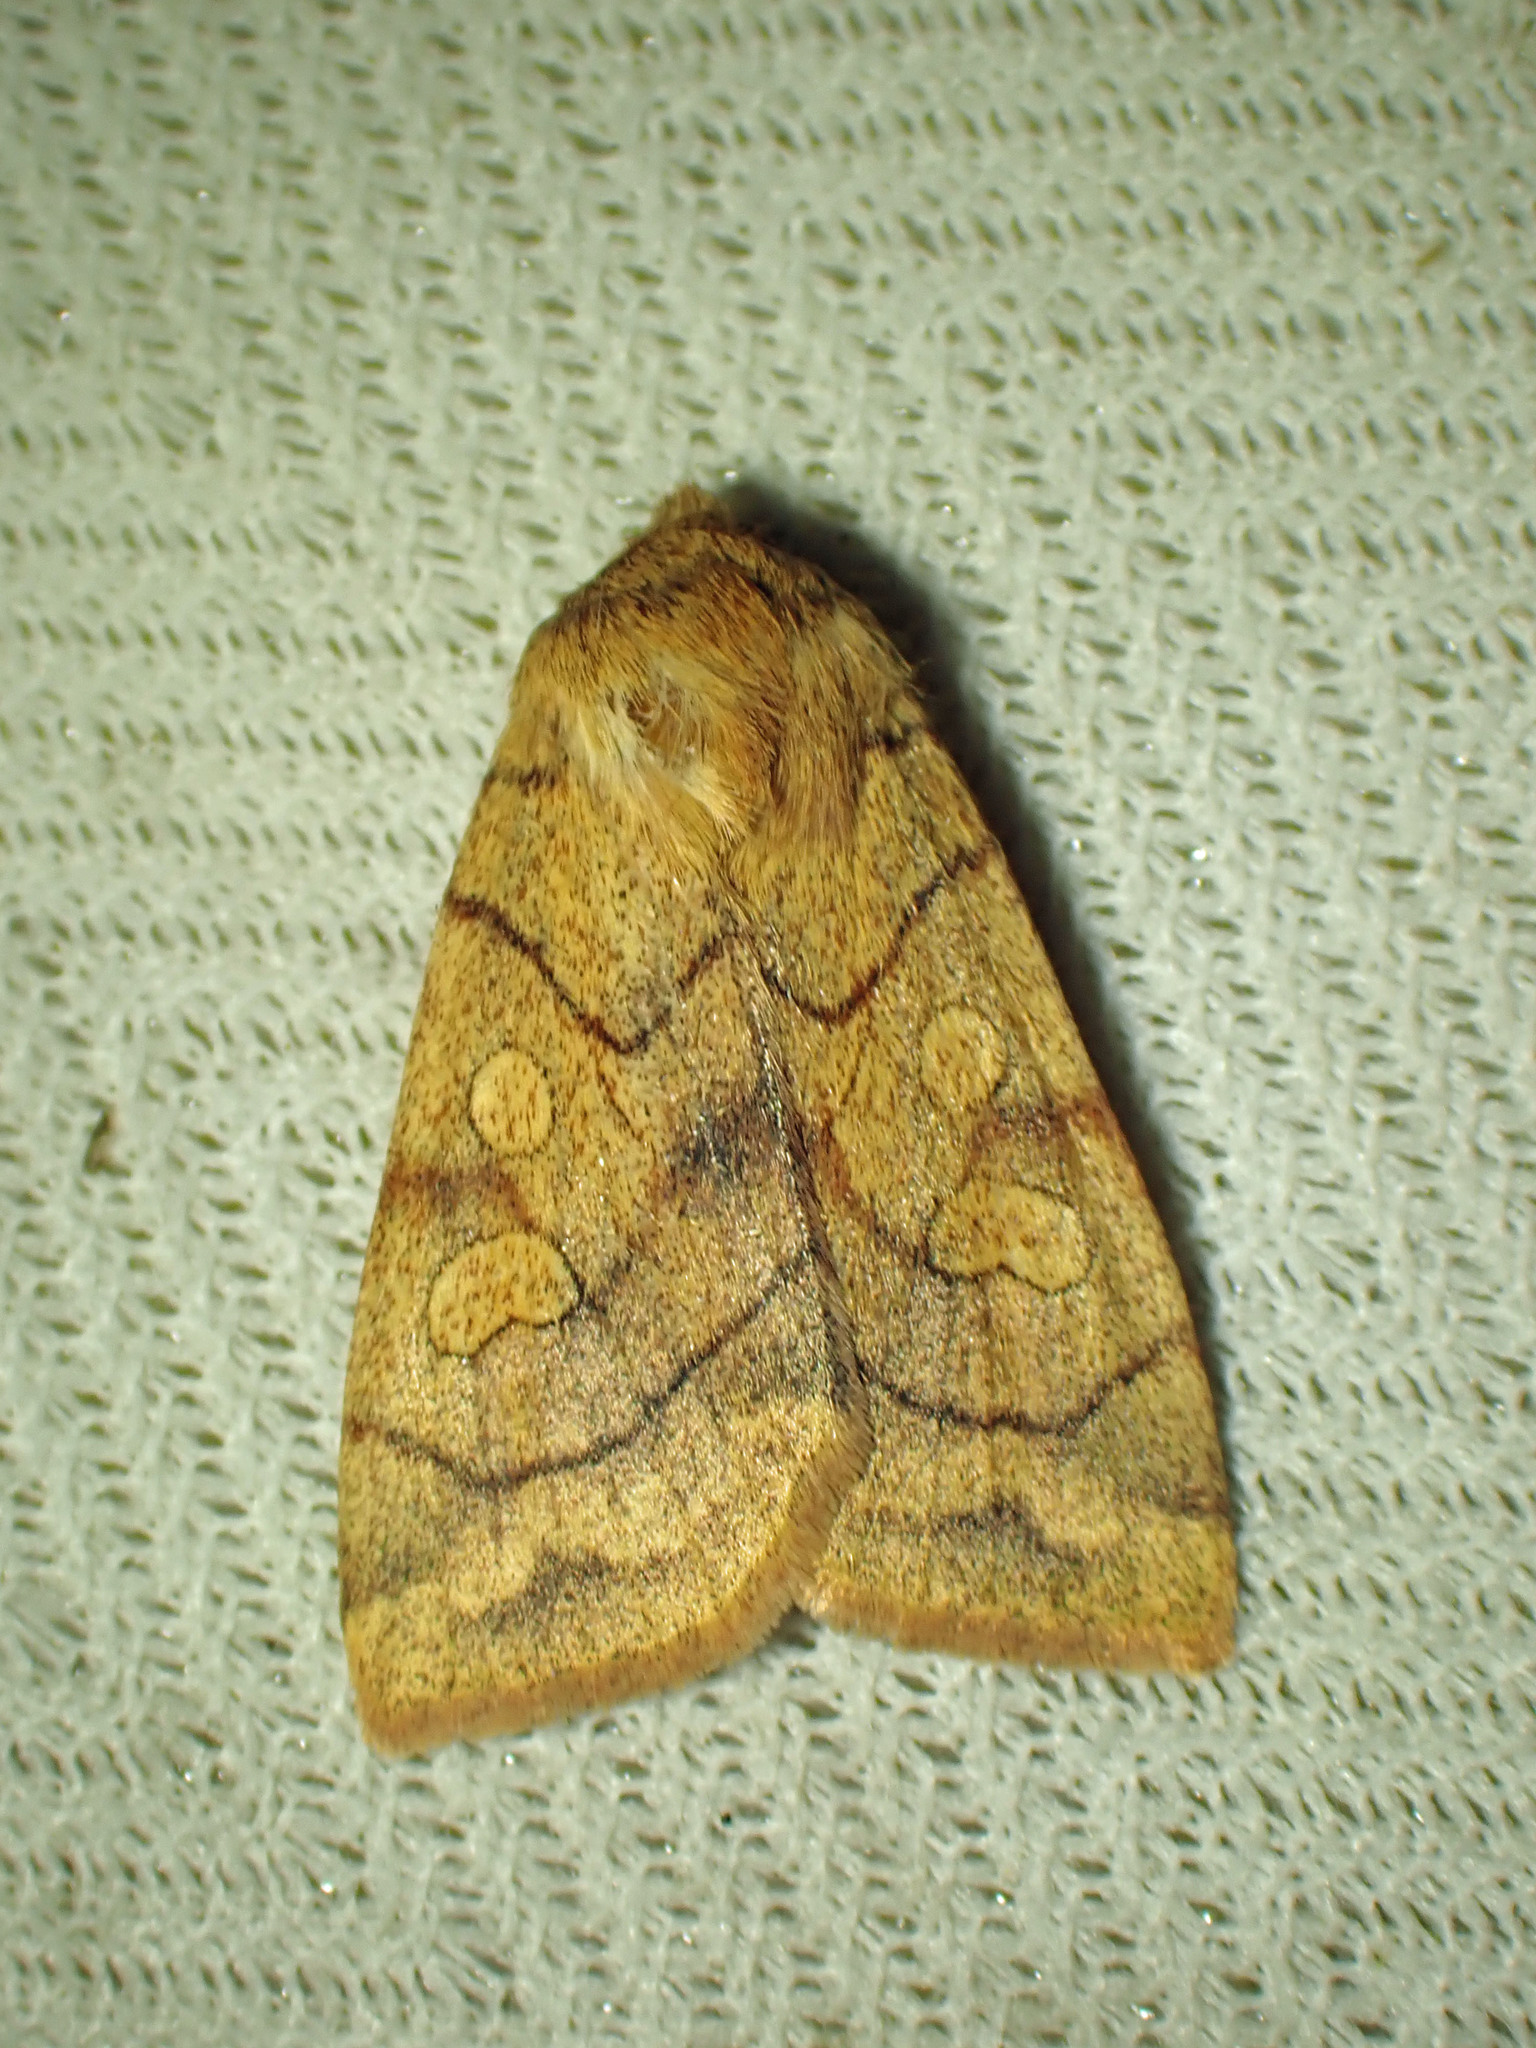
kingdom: Animalia
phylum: Arthropoda
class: Insecta
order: Lepidoptera
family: Noctuidae
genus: Enargia
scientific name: Enargia decolor
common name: Aspen twoleaf tier moth
